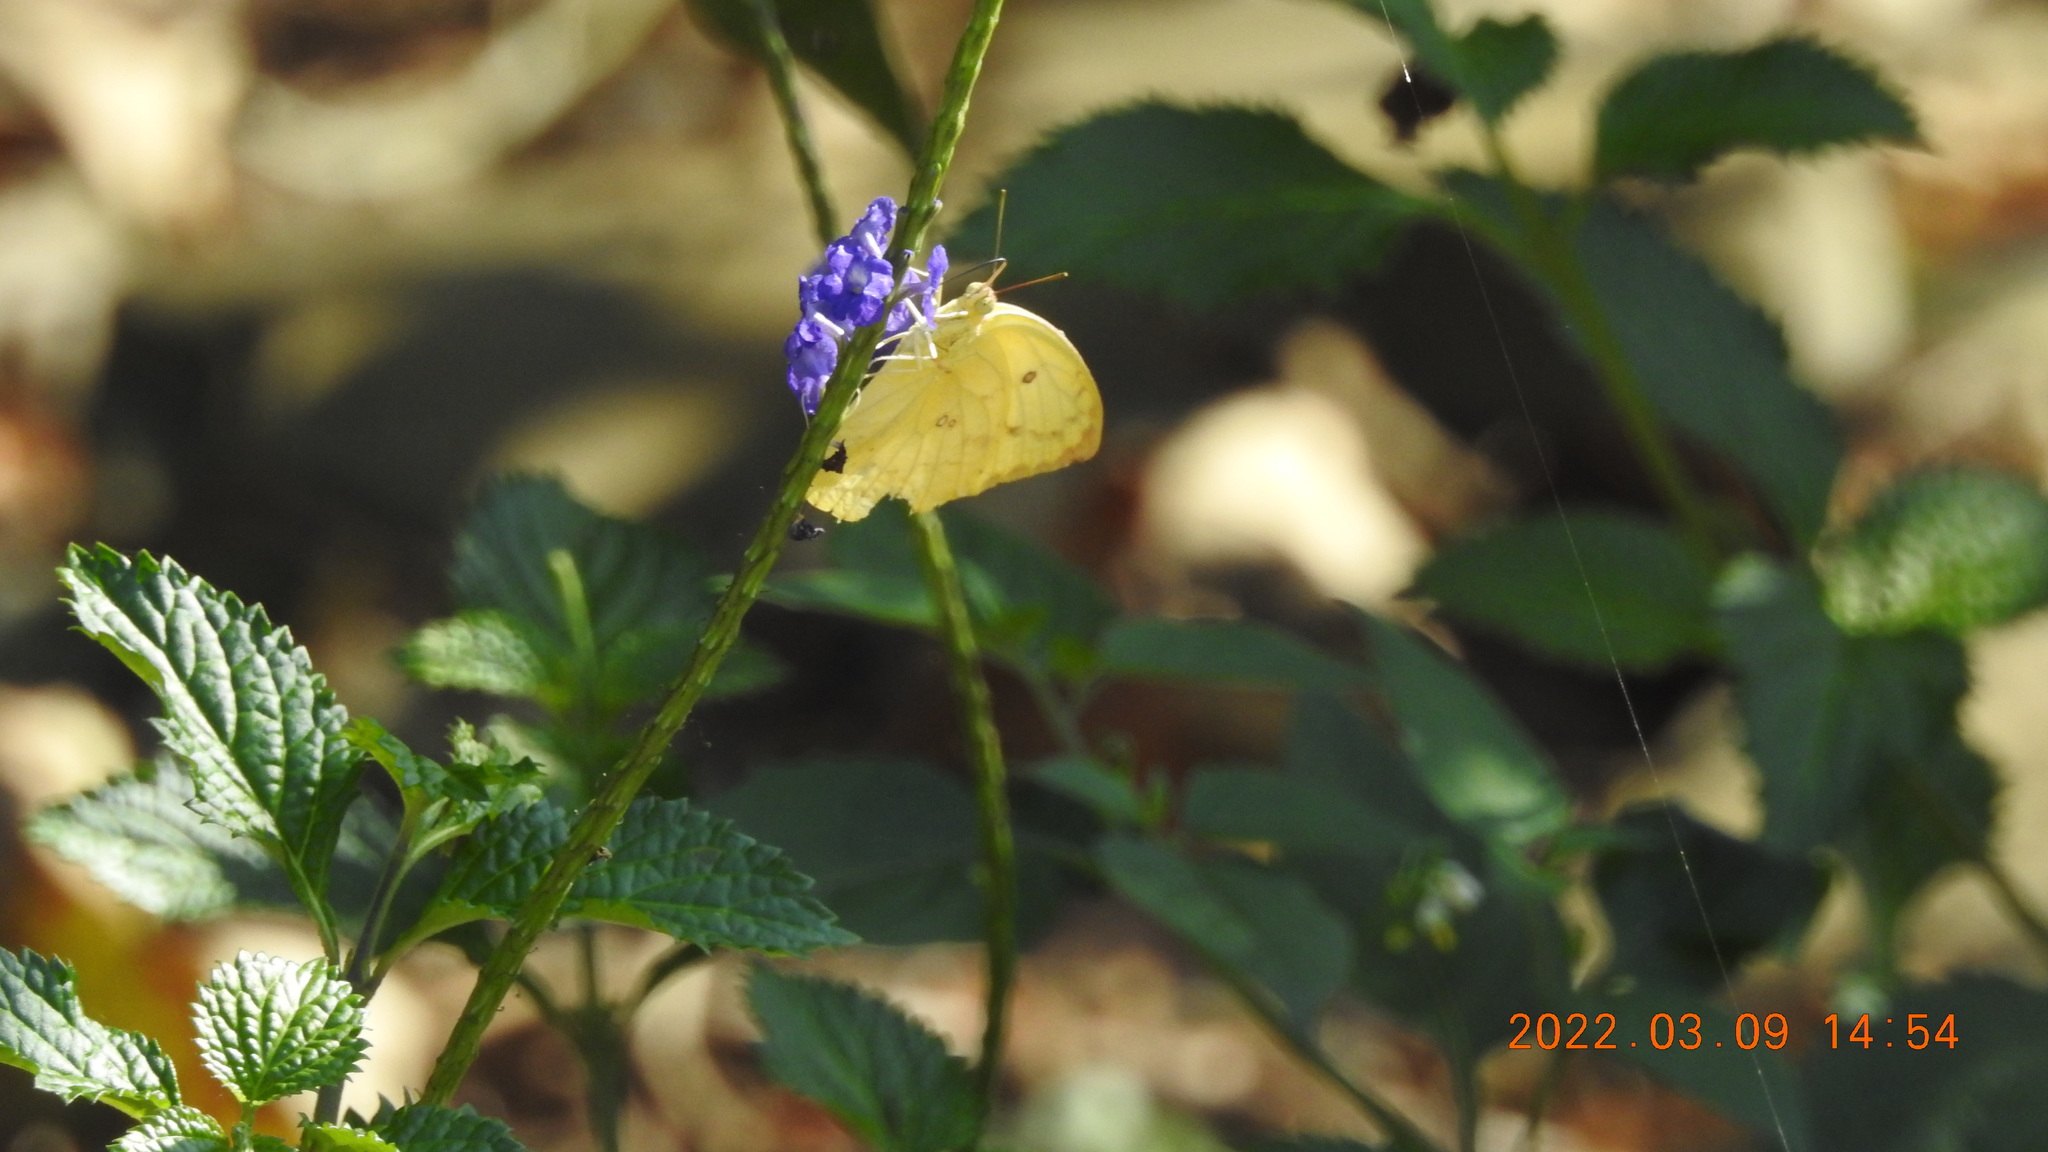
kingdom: Animalia
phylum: Arthropoda
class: Insecta
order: Lepidoptera
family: Pieridae
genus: Catopsilia
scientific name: Catopsilia pomona
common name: Common emigrant
